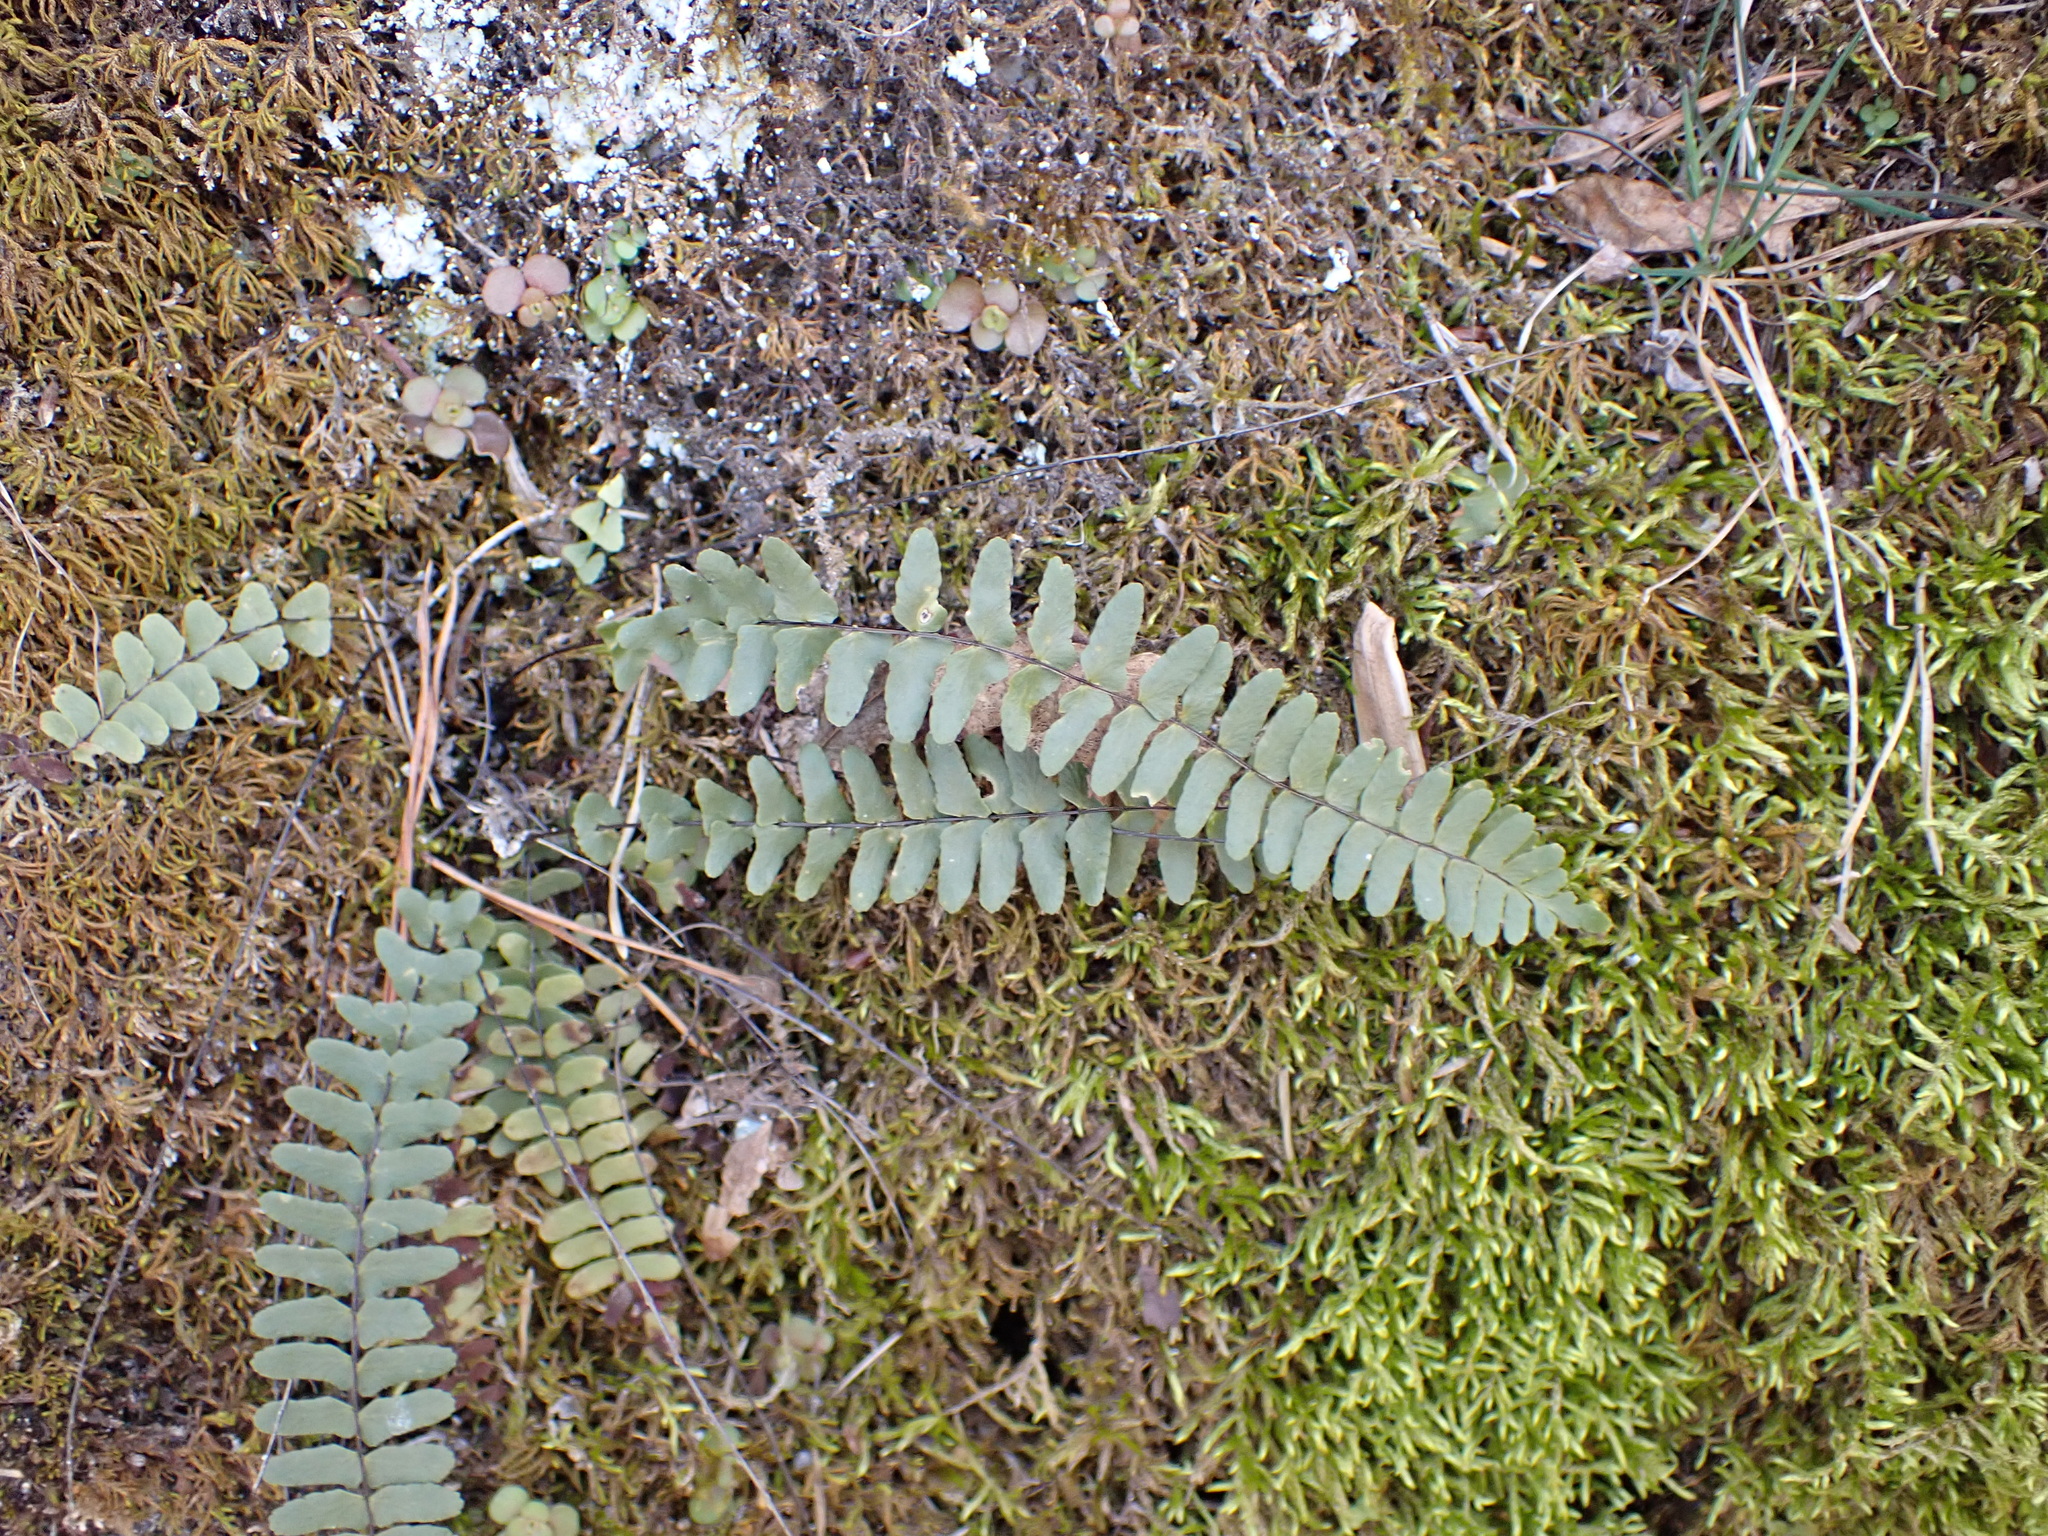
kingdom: Plantae
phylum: Tracheophyta
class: Polypodiopsida
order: Polypodiales
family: Aspleniaceae
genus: Asplenium
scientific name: Asplenium resiliens
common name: Blackstem spleenwort
